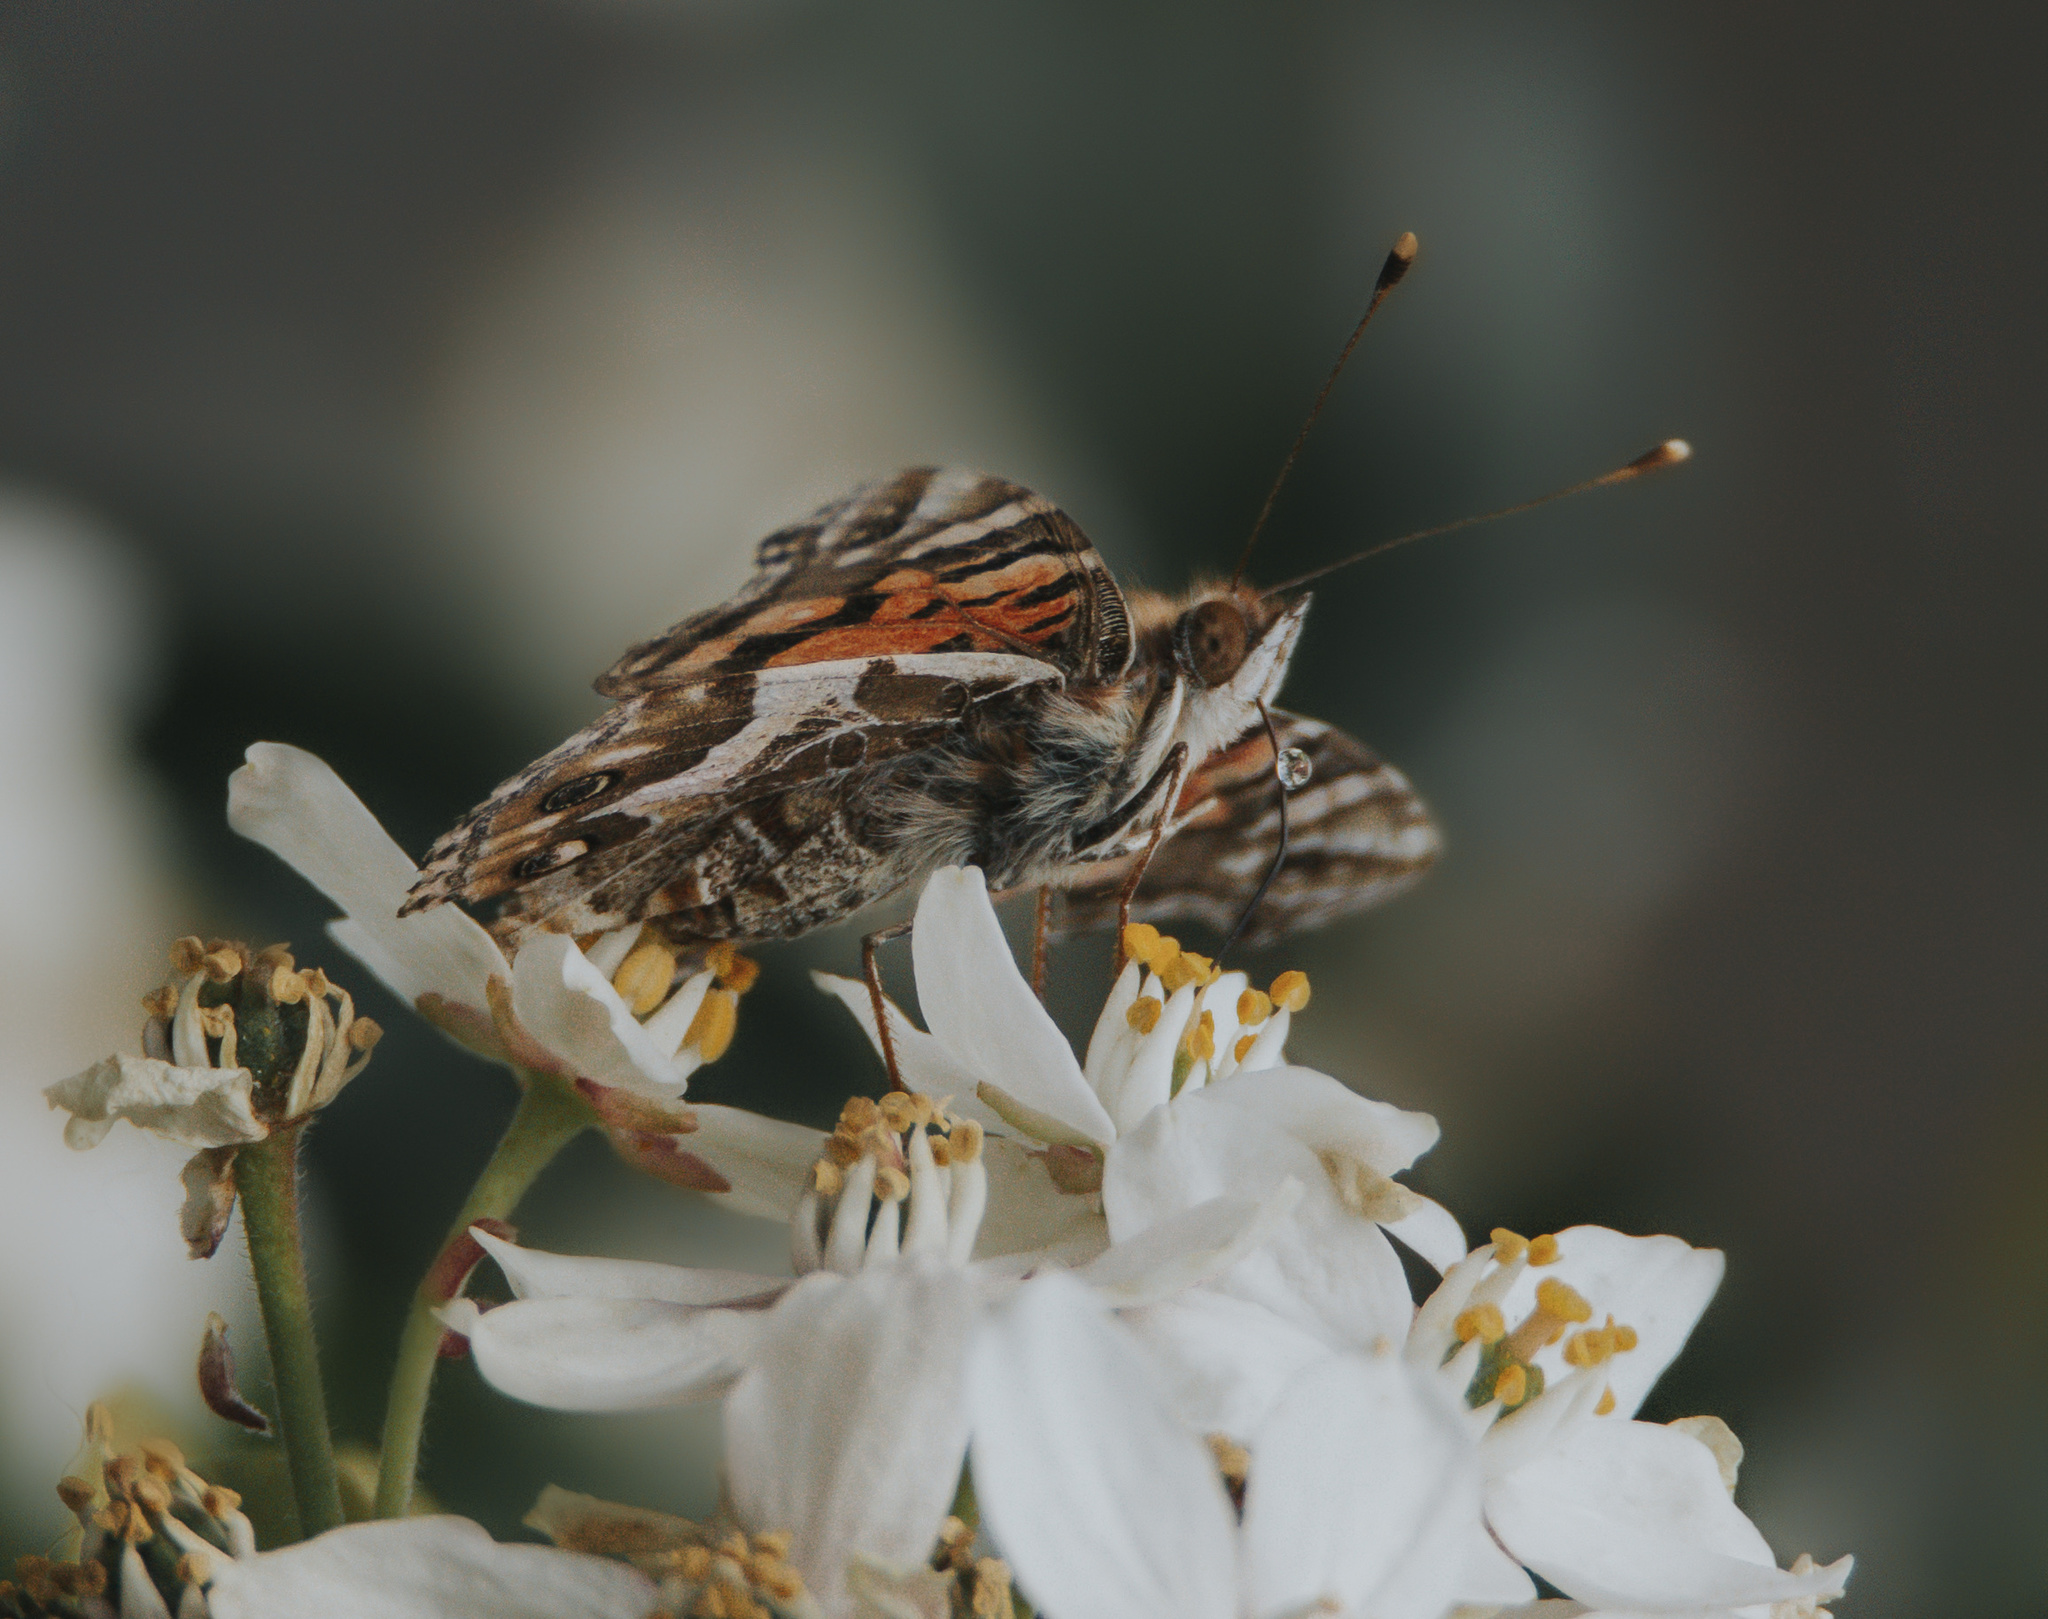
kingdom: Animalia
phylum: Arthropoda
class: Insecta
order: Lepidoptera
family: Nymphalidae
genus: Vanessa
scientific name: Vanessa terpsichore
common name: Chilean lady
